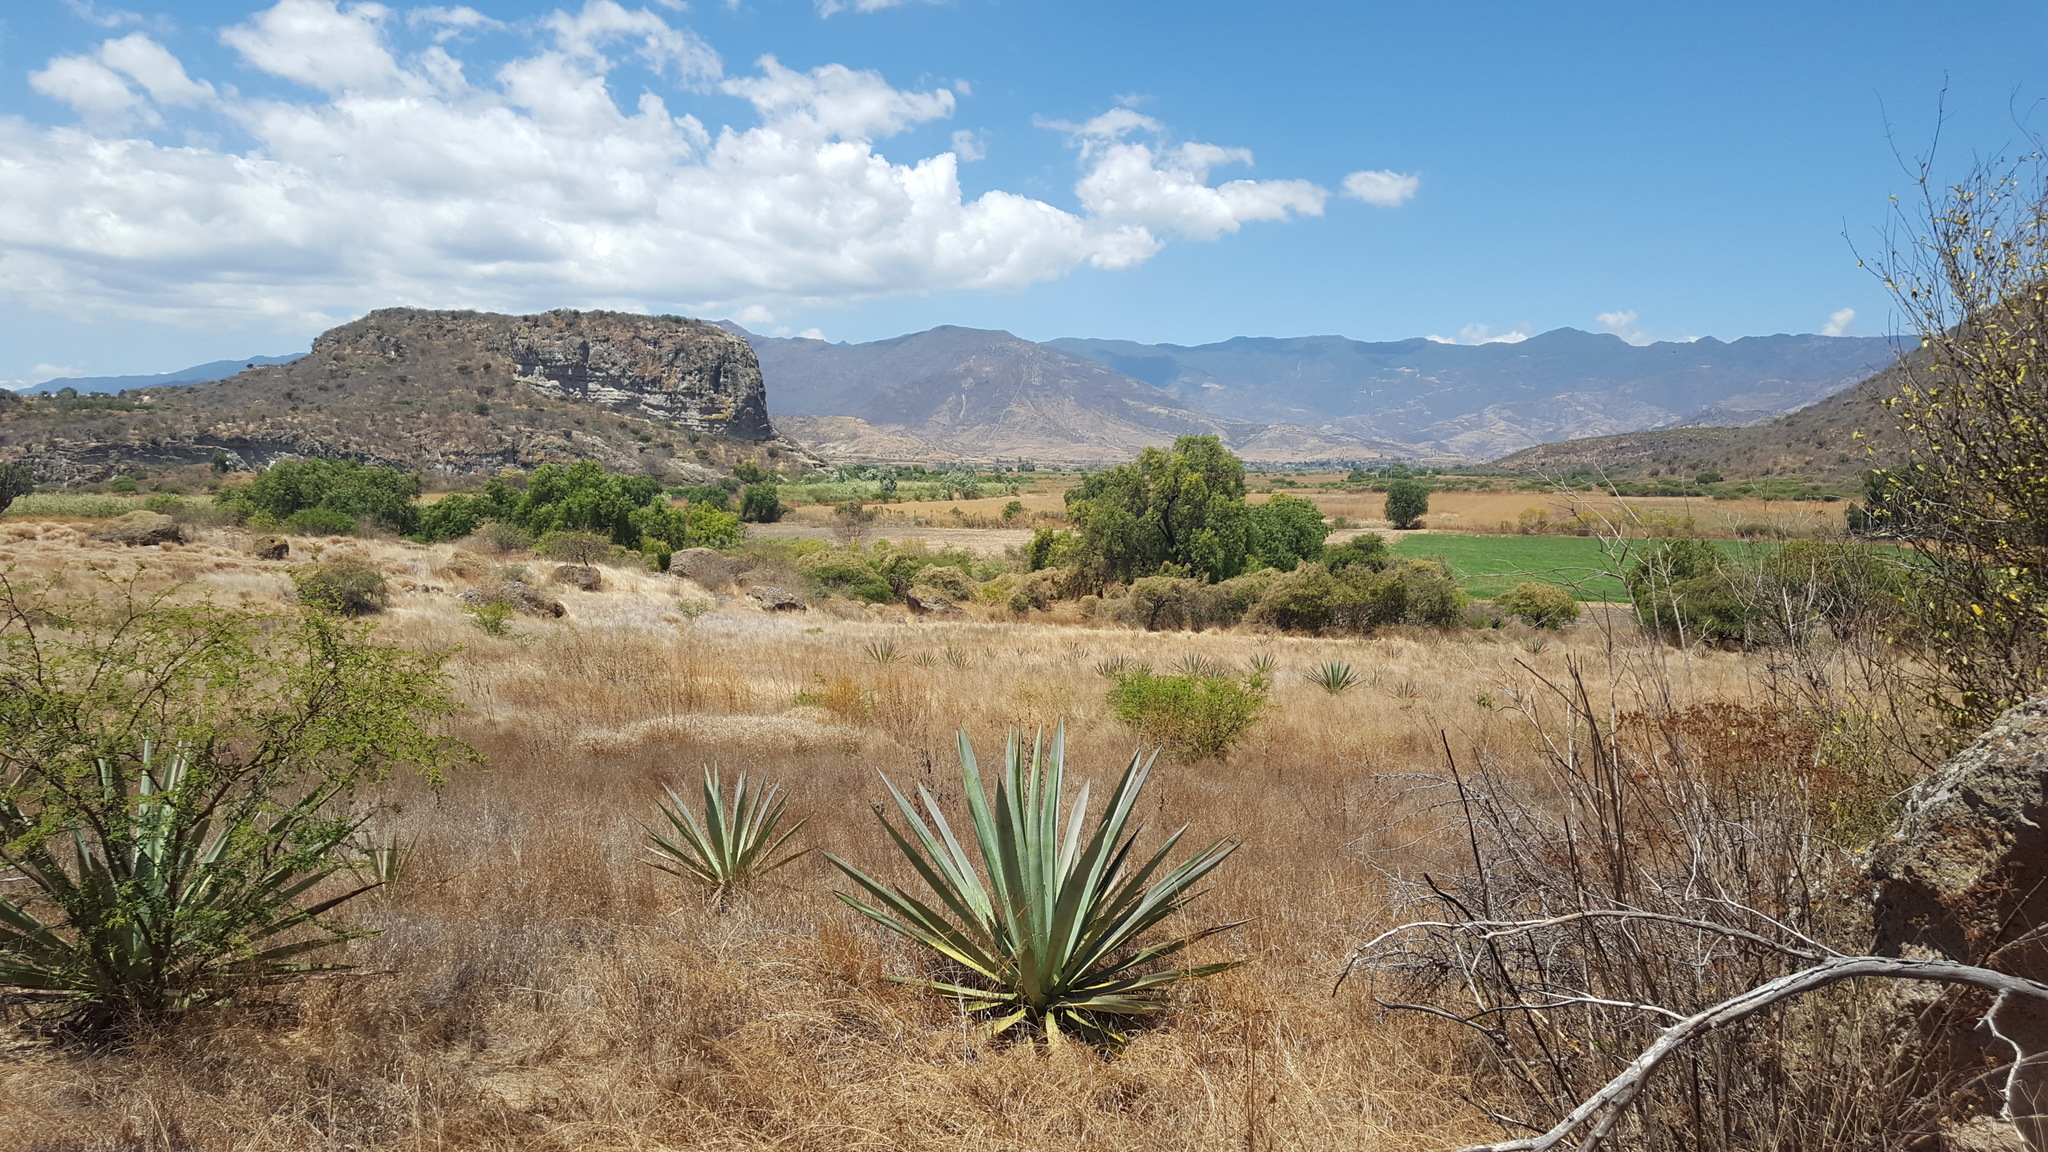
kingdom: Plantae
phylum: Tracheophyta
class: Liliopsida
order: Asparagales
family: Asparagaceae
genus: Agave
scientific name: Agave vivipara
